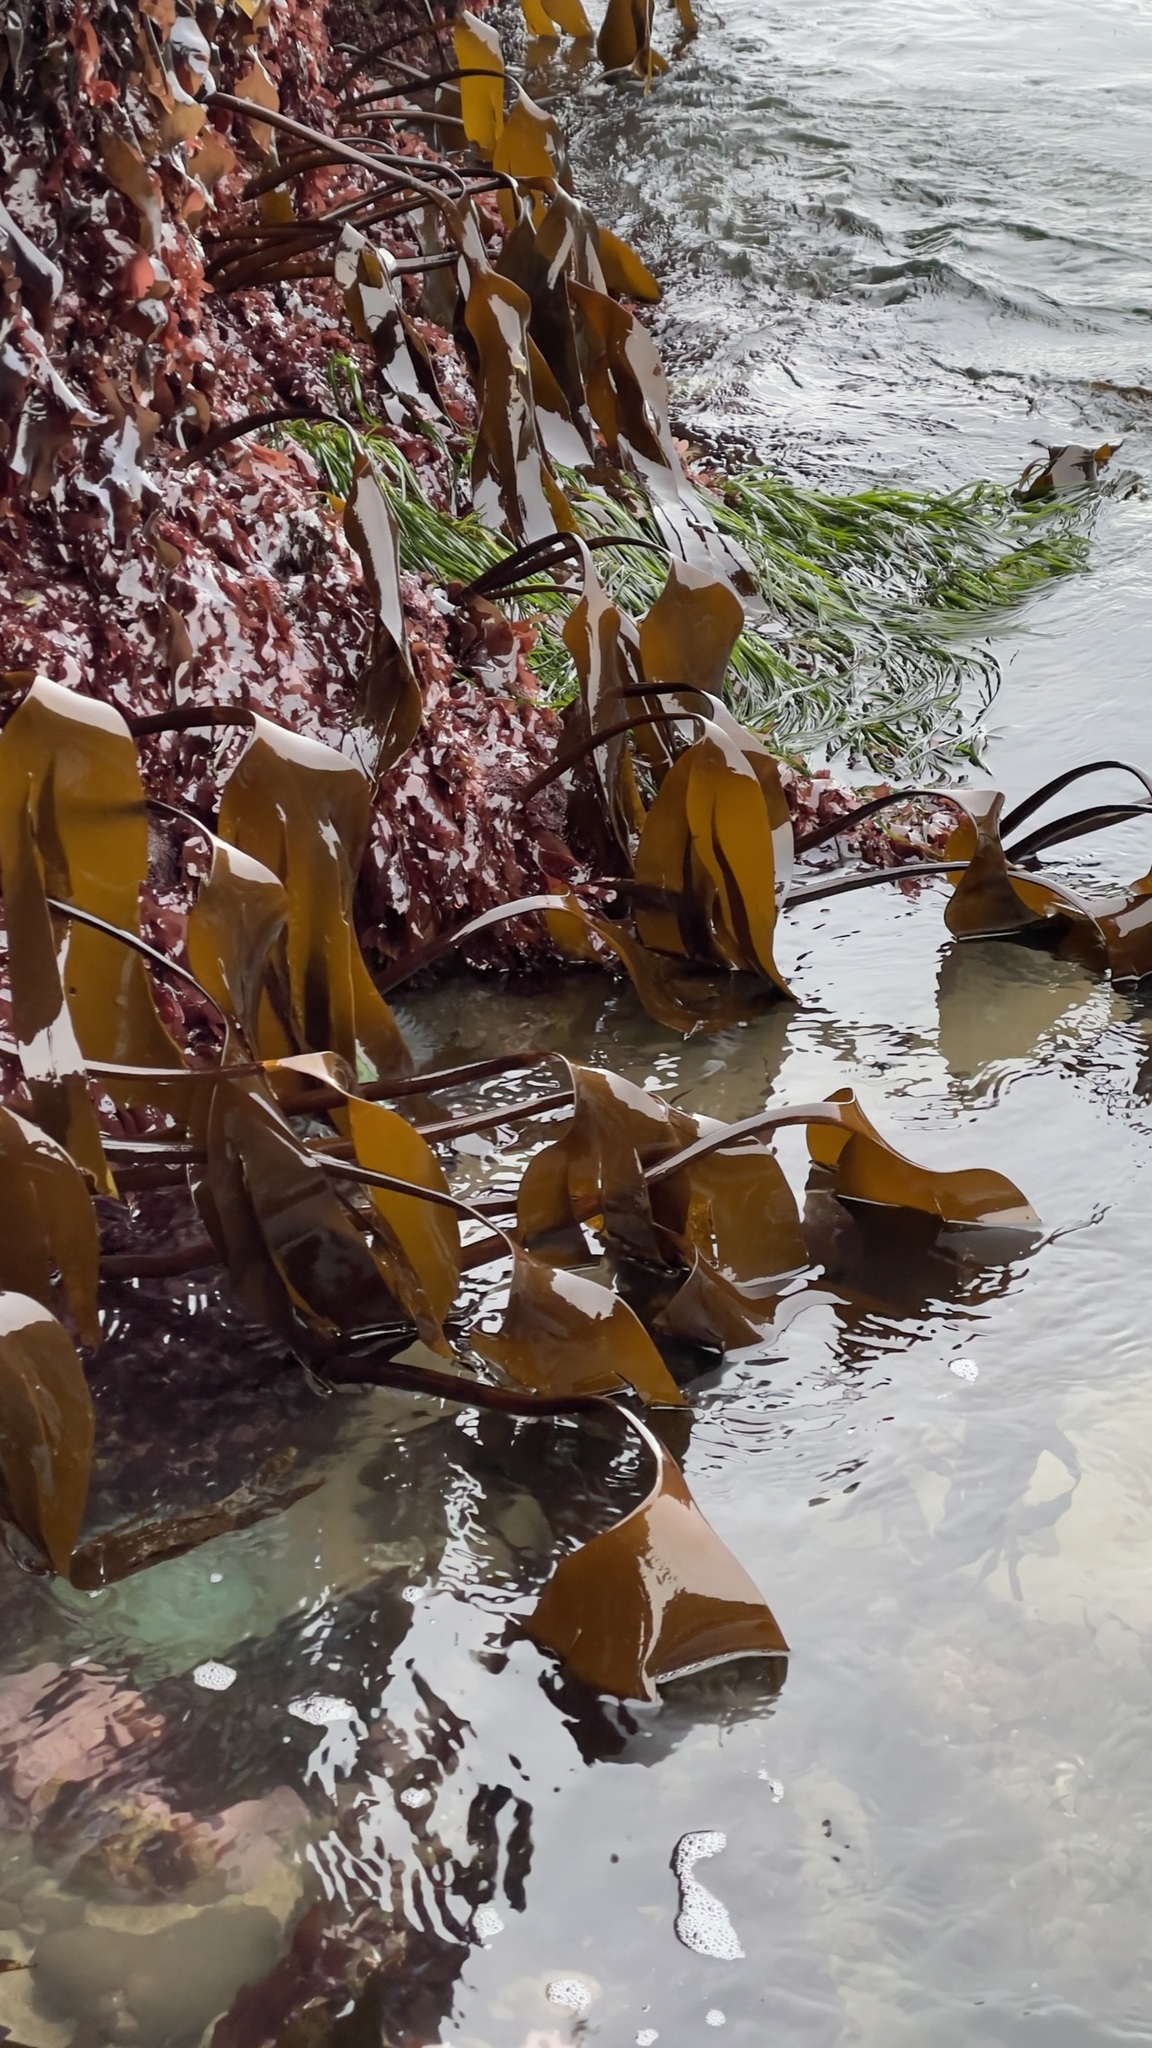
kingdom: Chromista
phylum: Ochrophyta
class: Phaeophyceae
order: Laminariales
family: Laminariaceae
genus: Laminaria
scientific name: Laminaria setchellii
